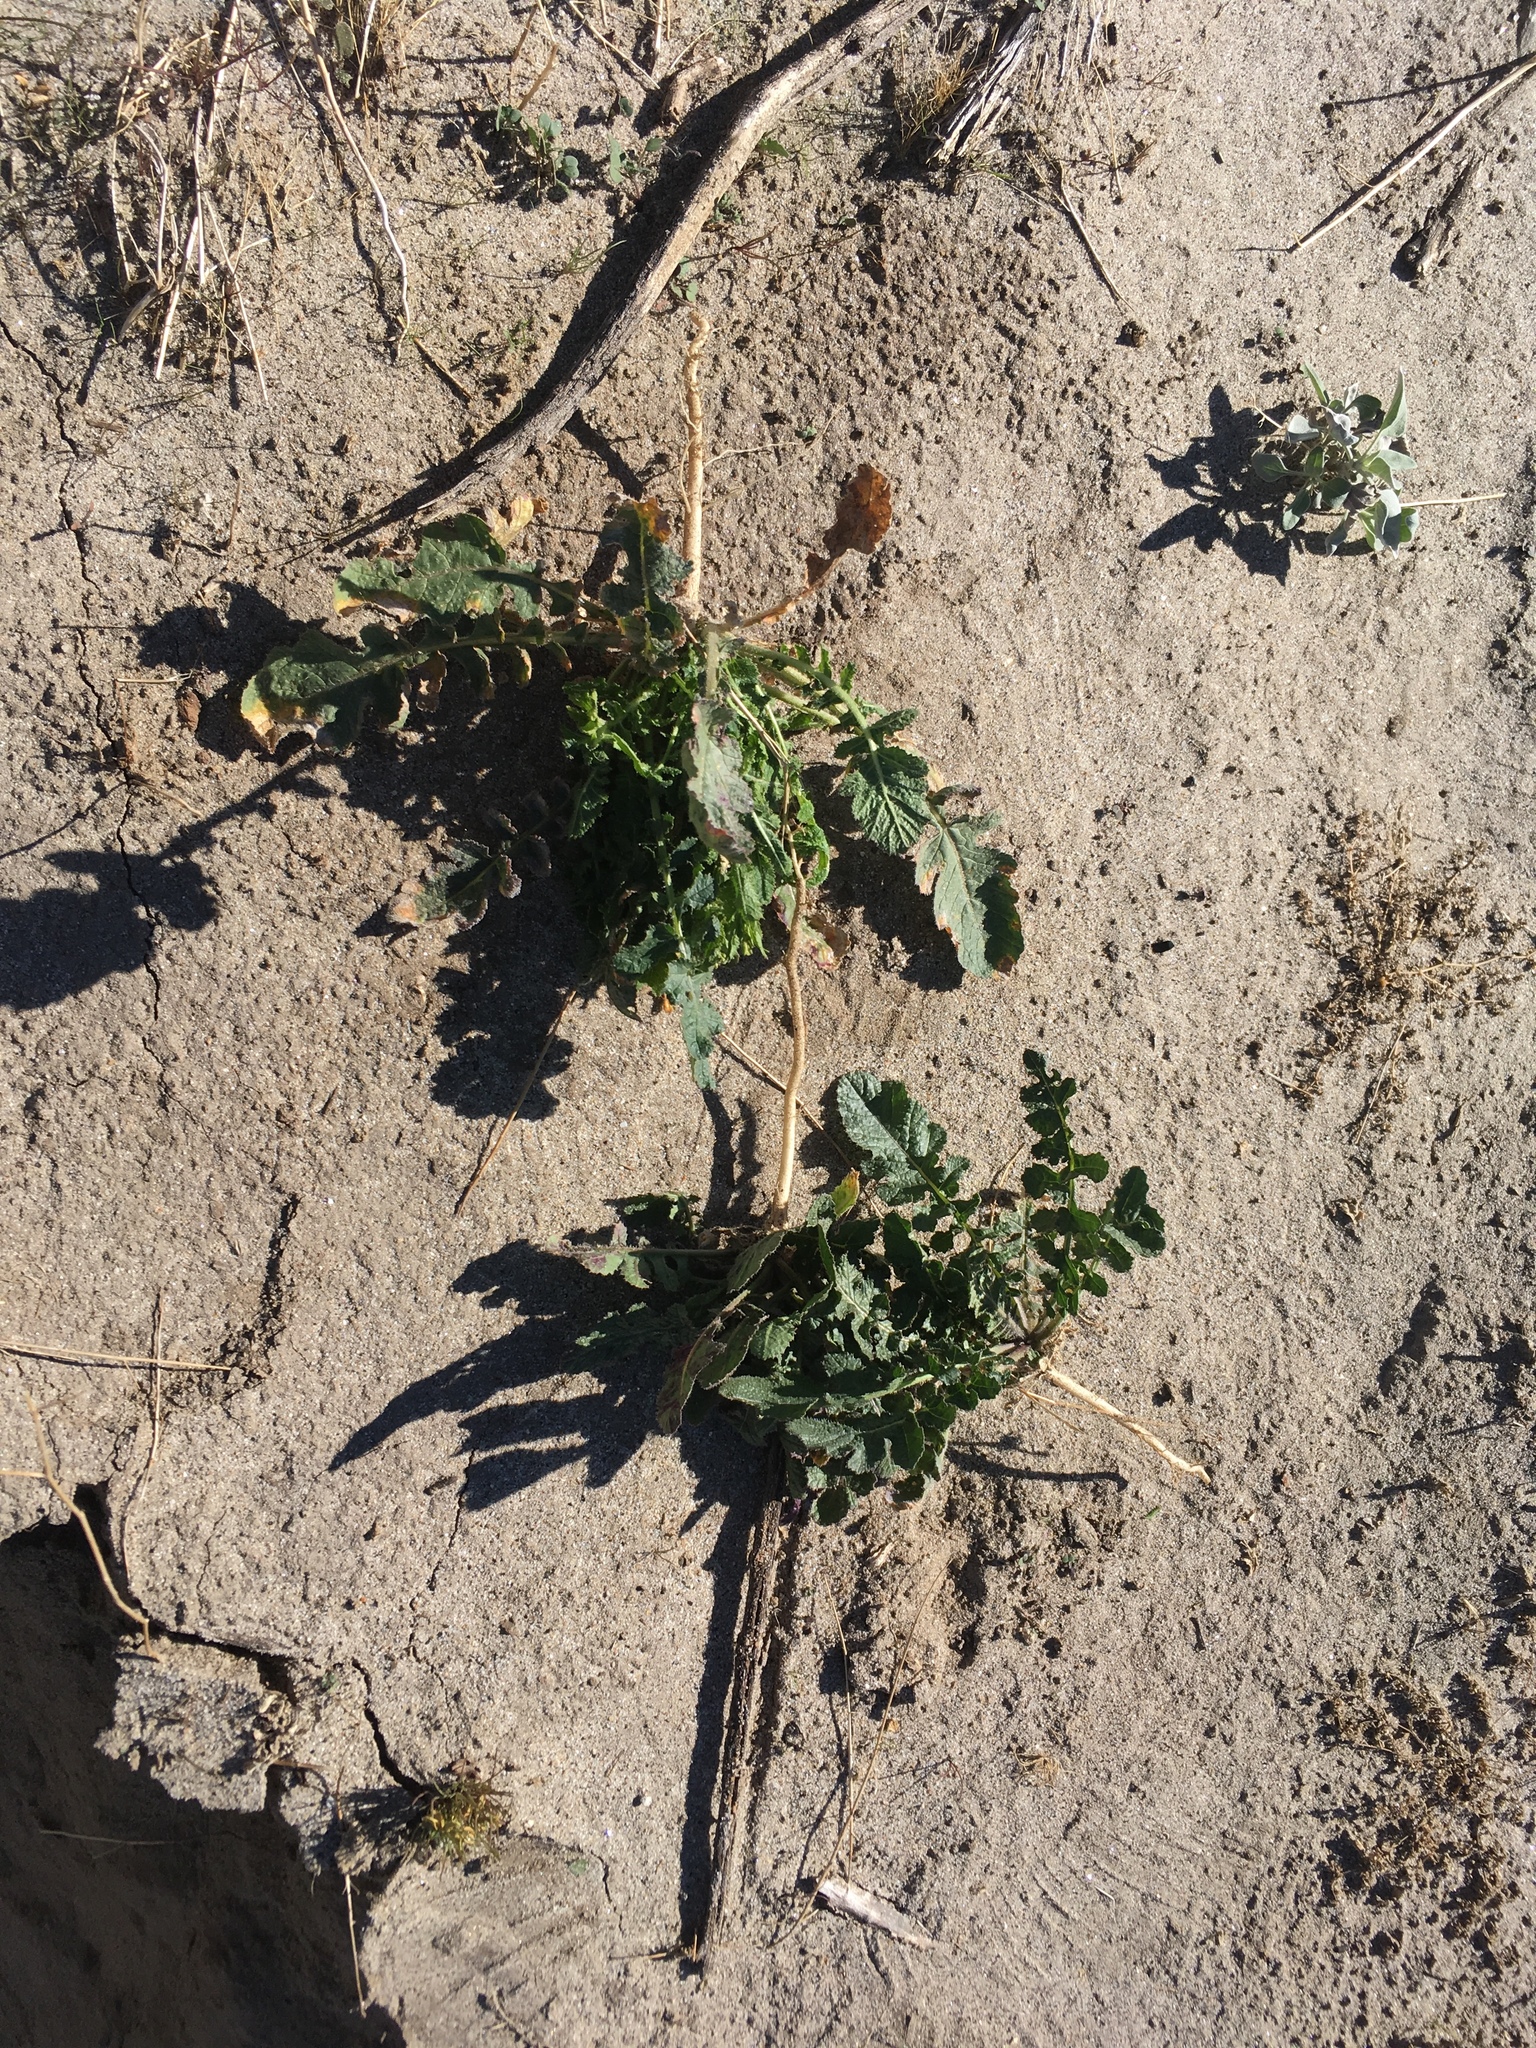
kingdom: Plantae
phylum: Tracheophyta
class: Magnoliopsida
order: Brassicales
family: Brassicaceae
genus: Brassica
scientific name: Brassica tournefortii
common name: Pale cabbage
